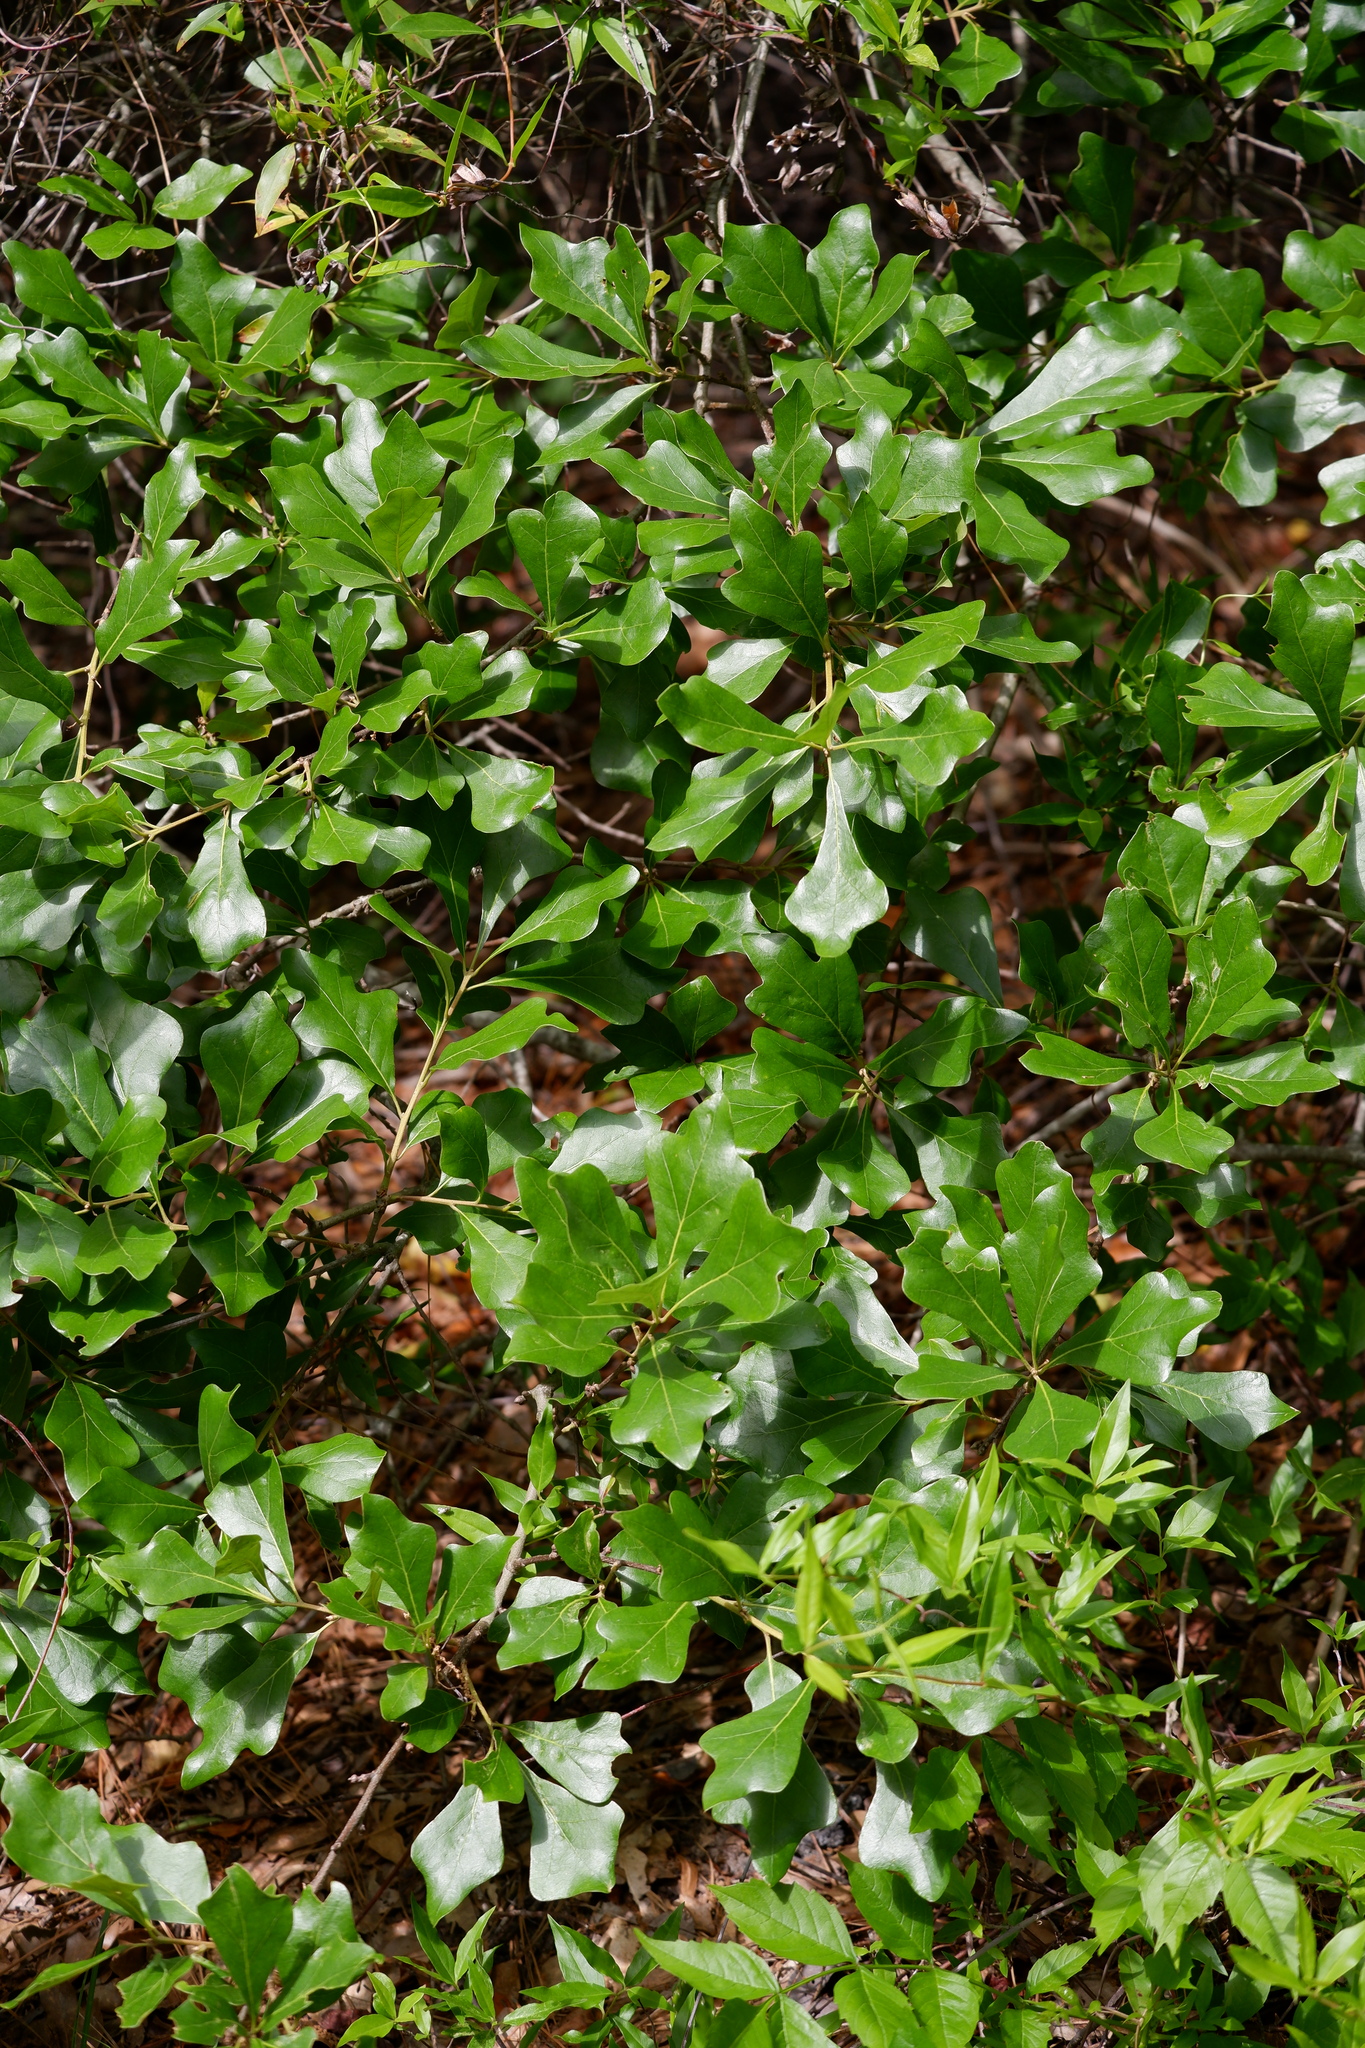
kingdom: Plantae
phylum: Tracheophyta
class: Magnoliopsida
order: Fagales
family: Fagaceae
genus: Quercus
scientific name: Quercus nigra
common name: Water oak
